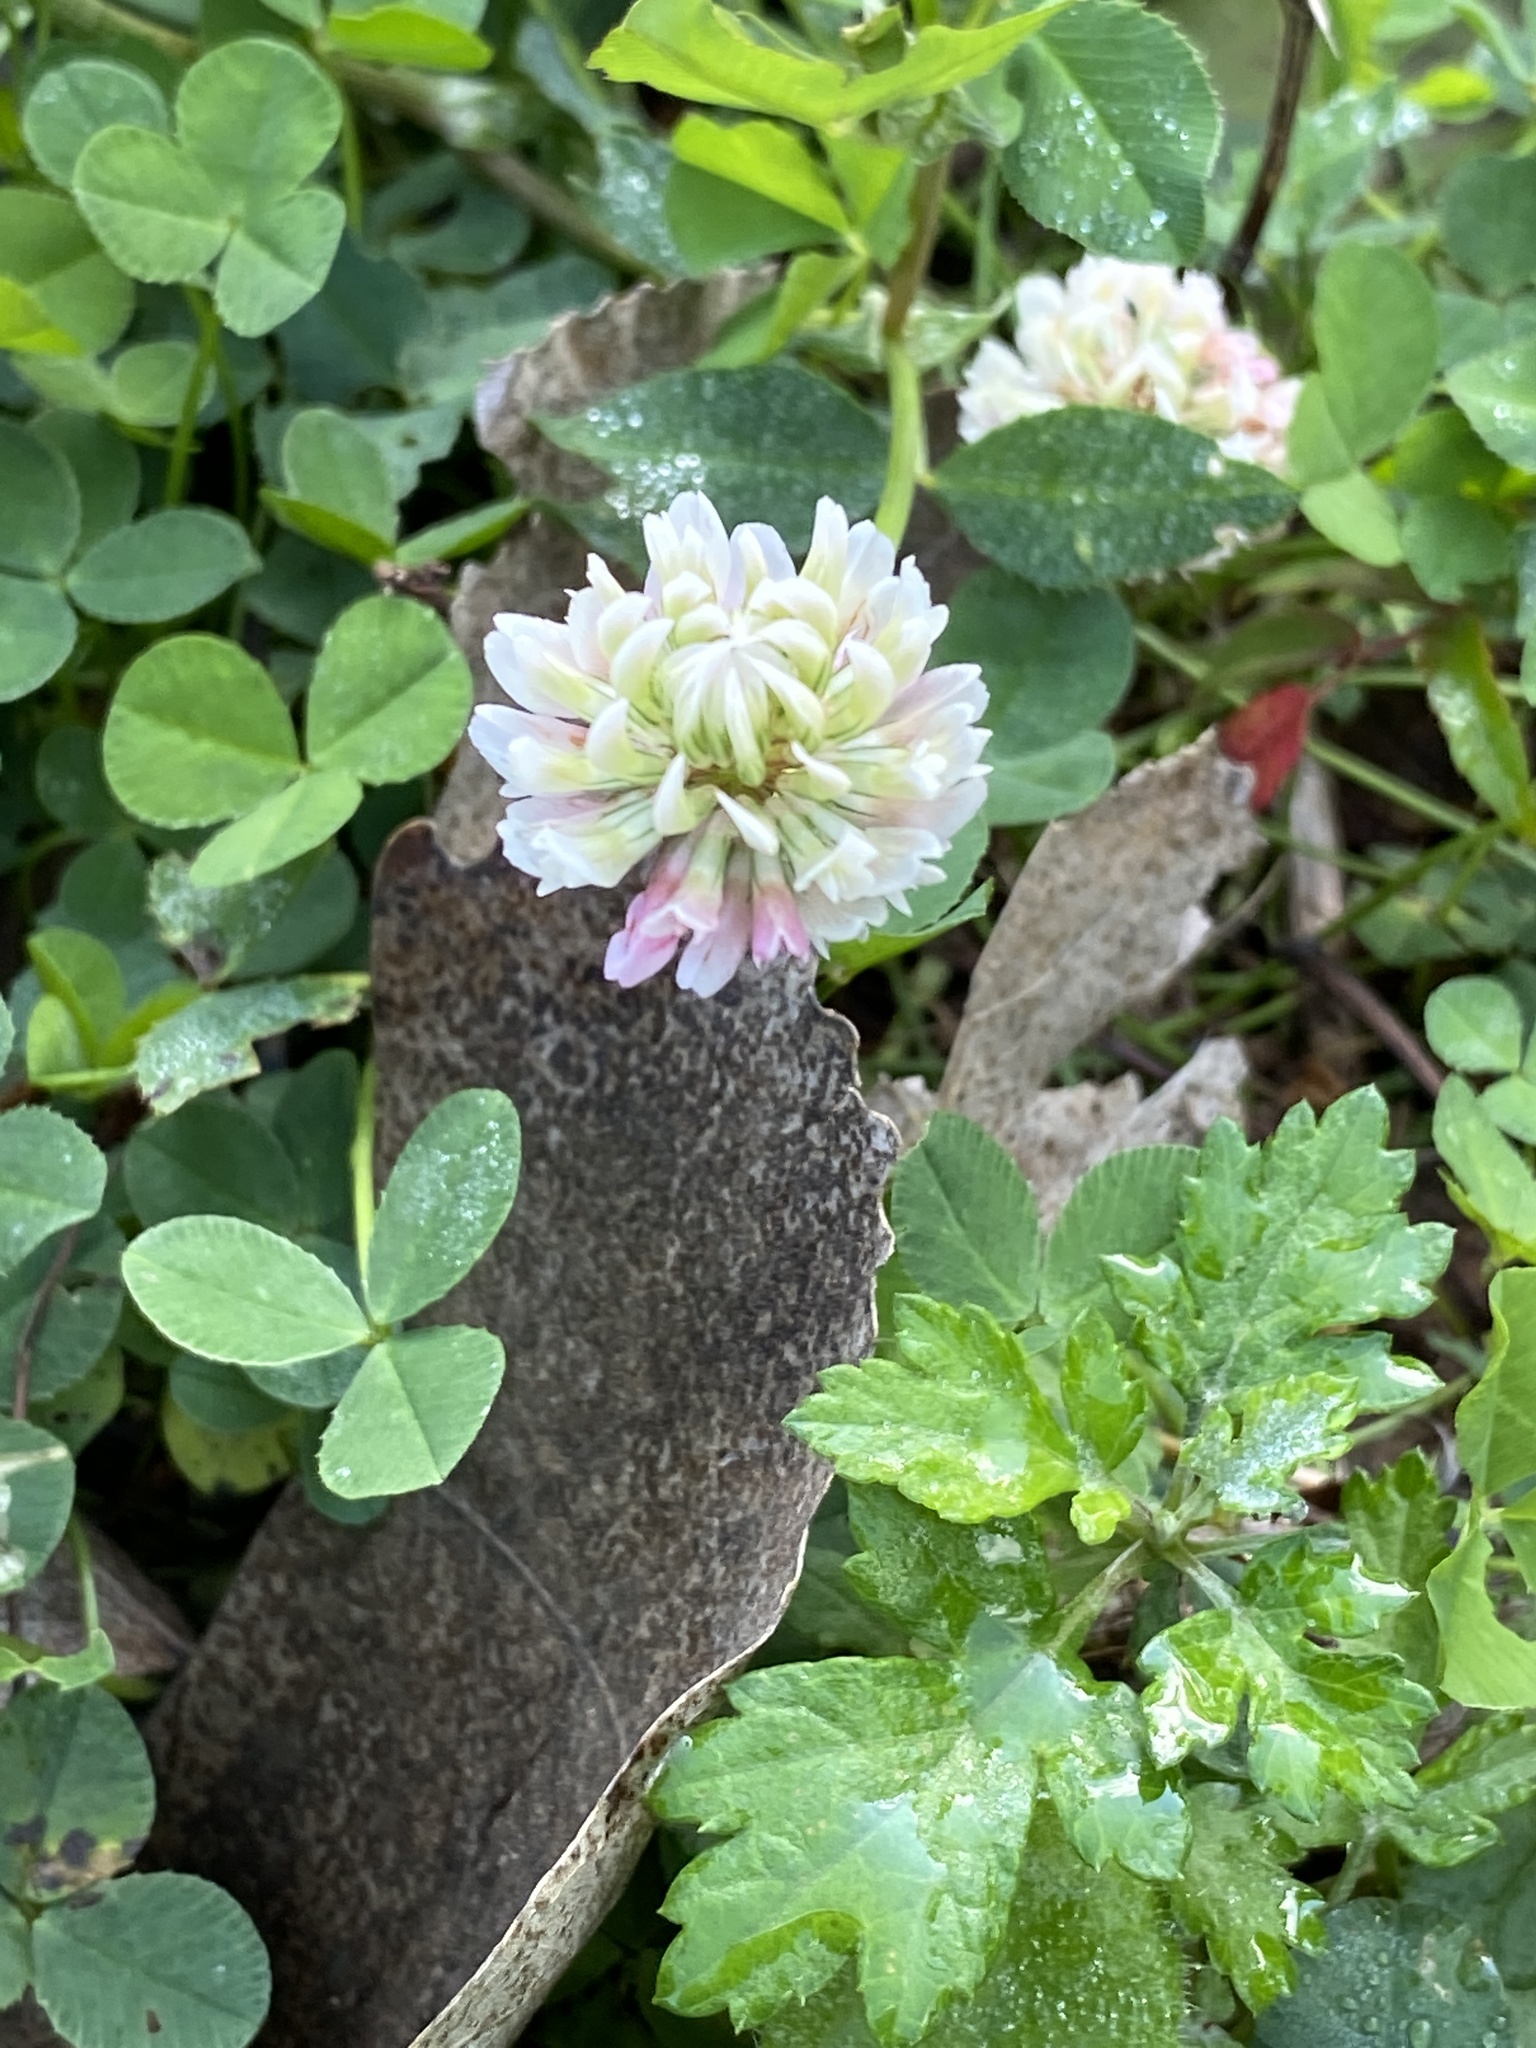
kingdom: Plantae
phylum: Tracheophyta
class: Magnoliopsida
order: Fabales
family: Fabaceae
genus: Trifolium
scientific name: Trifolium repens
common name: White clover
